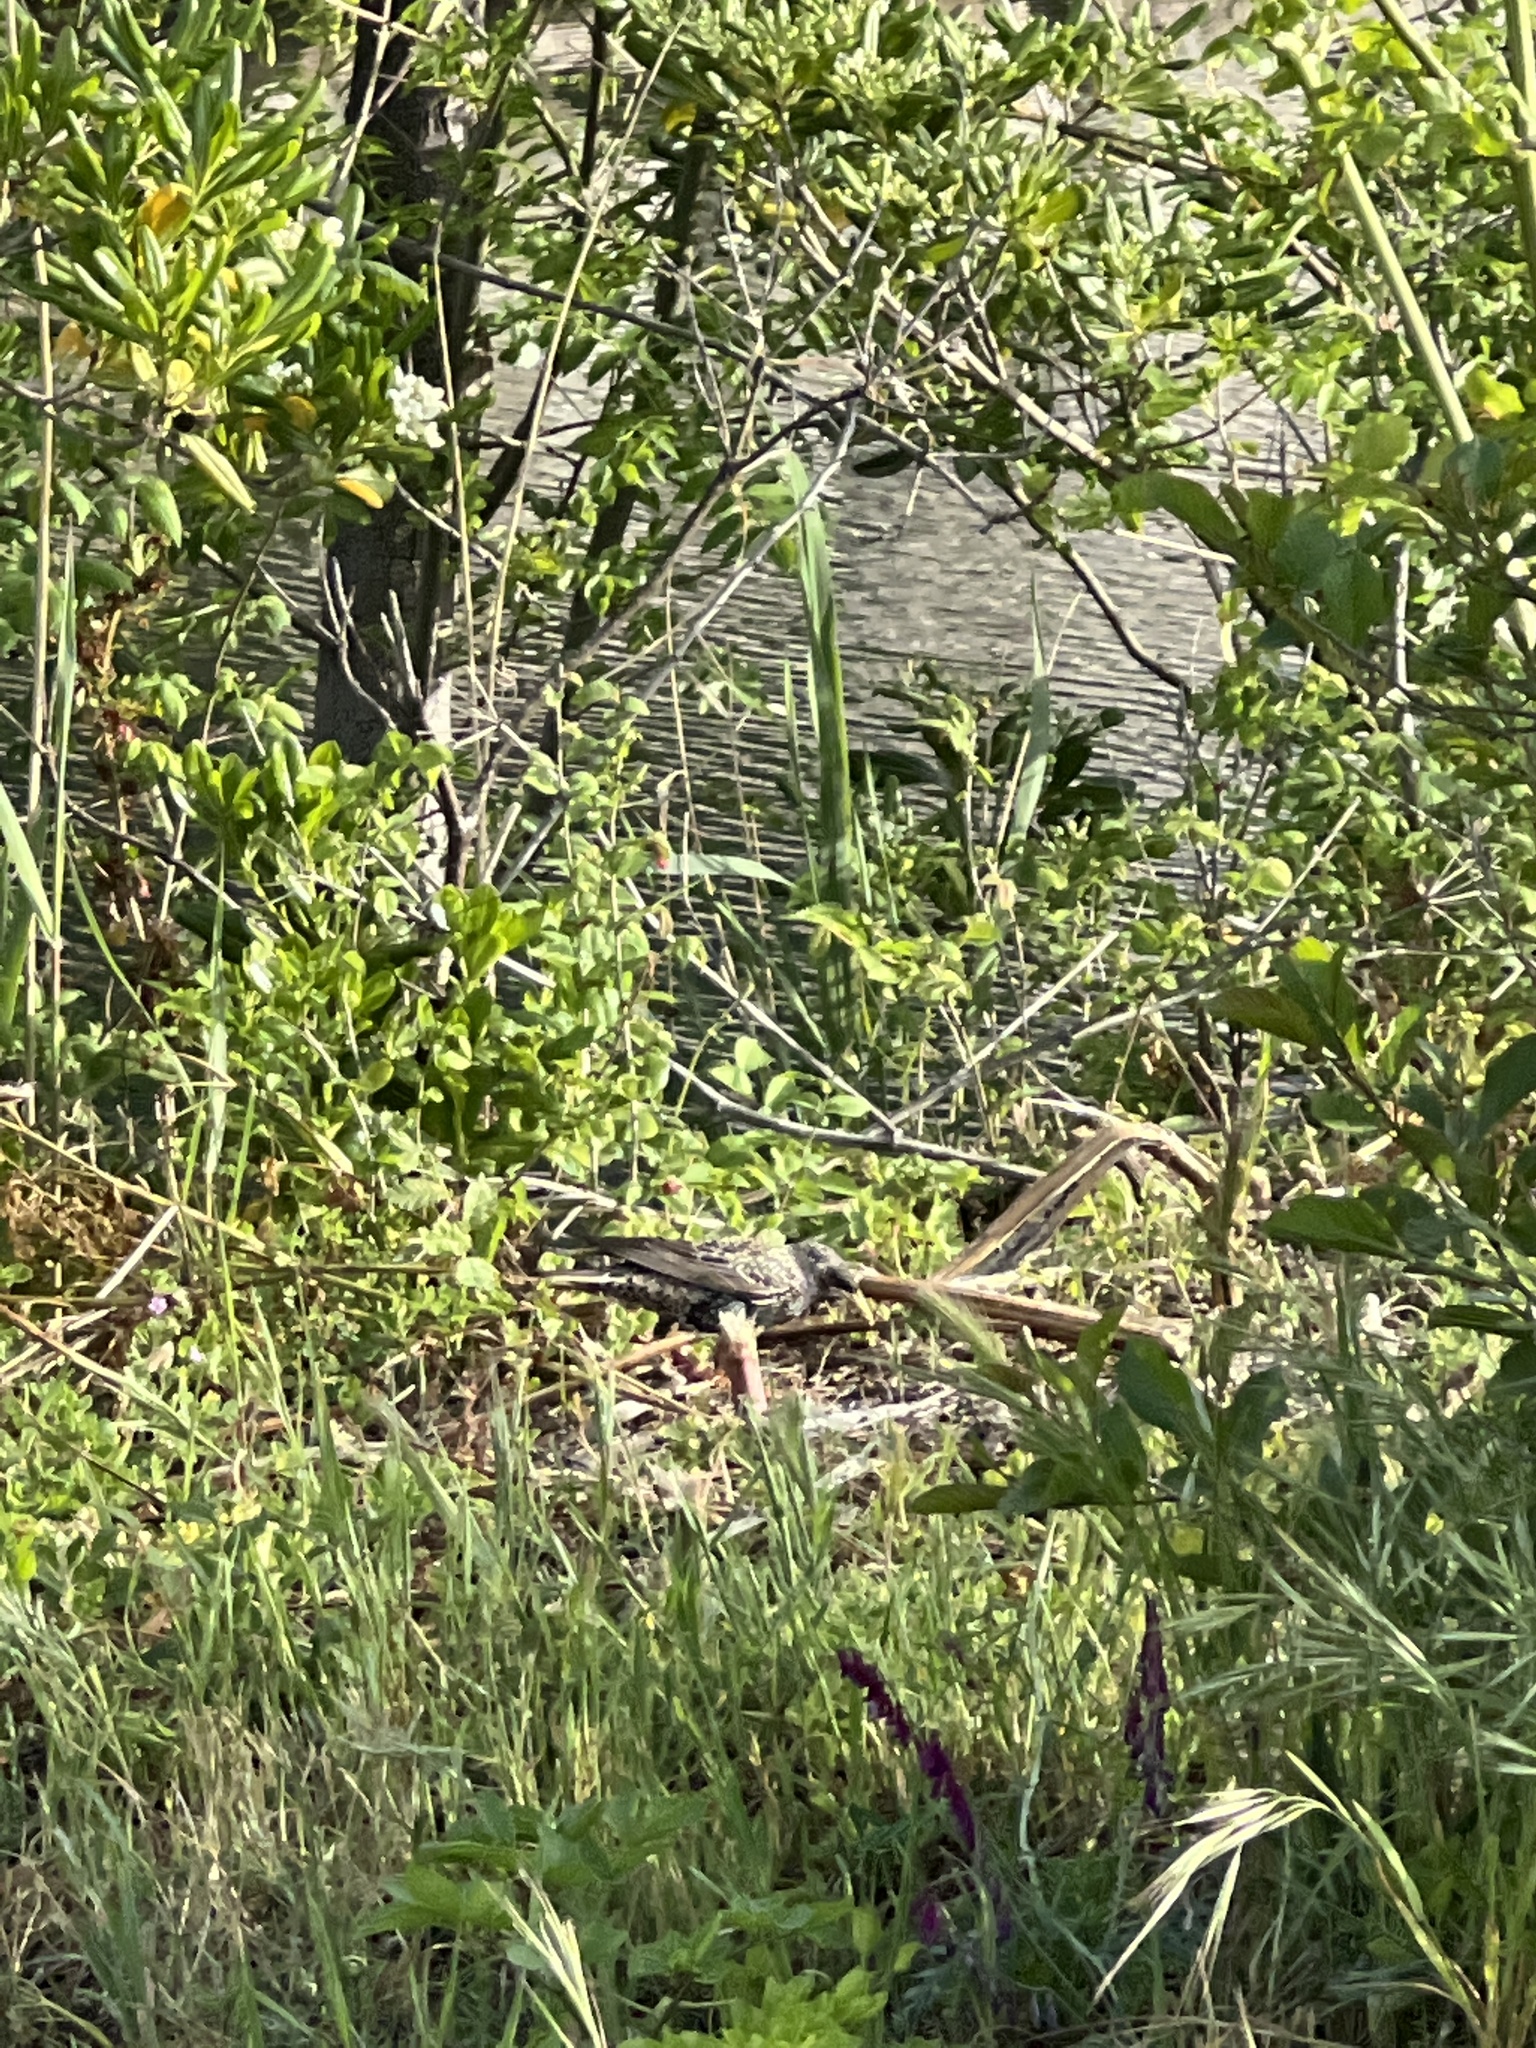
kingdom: Animalia
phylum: Chordata
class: Aves
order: Passeriformes
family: Sturnidae
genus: Sturnus
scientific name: Sturnus vulgaris
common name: Common starling
